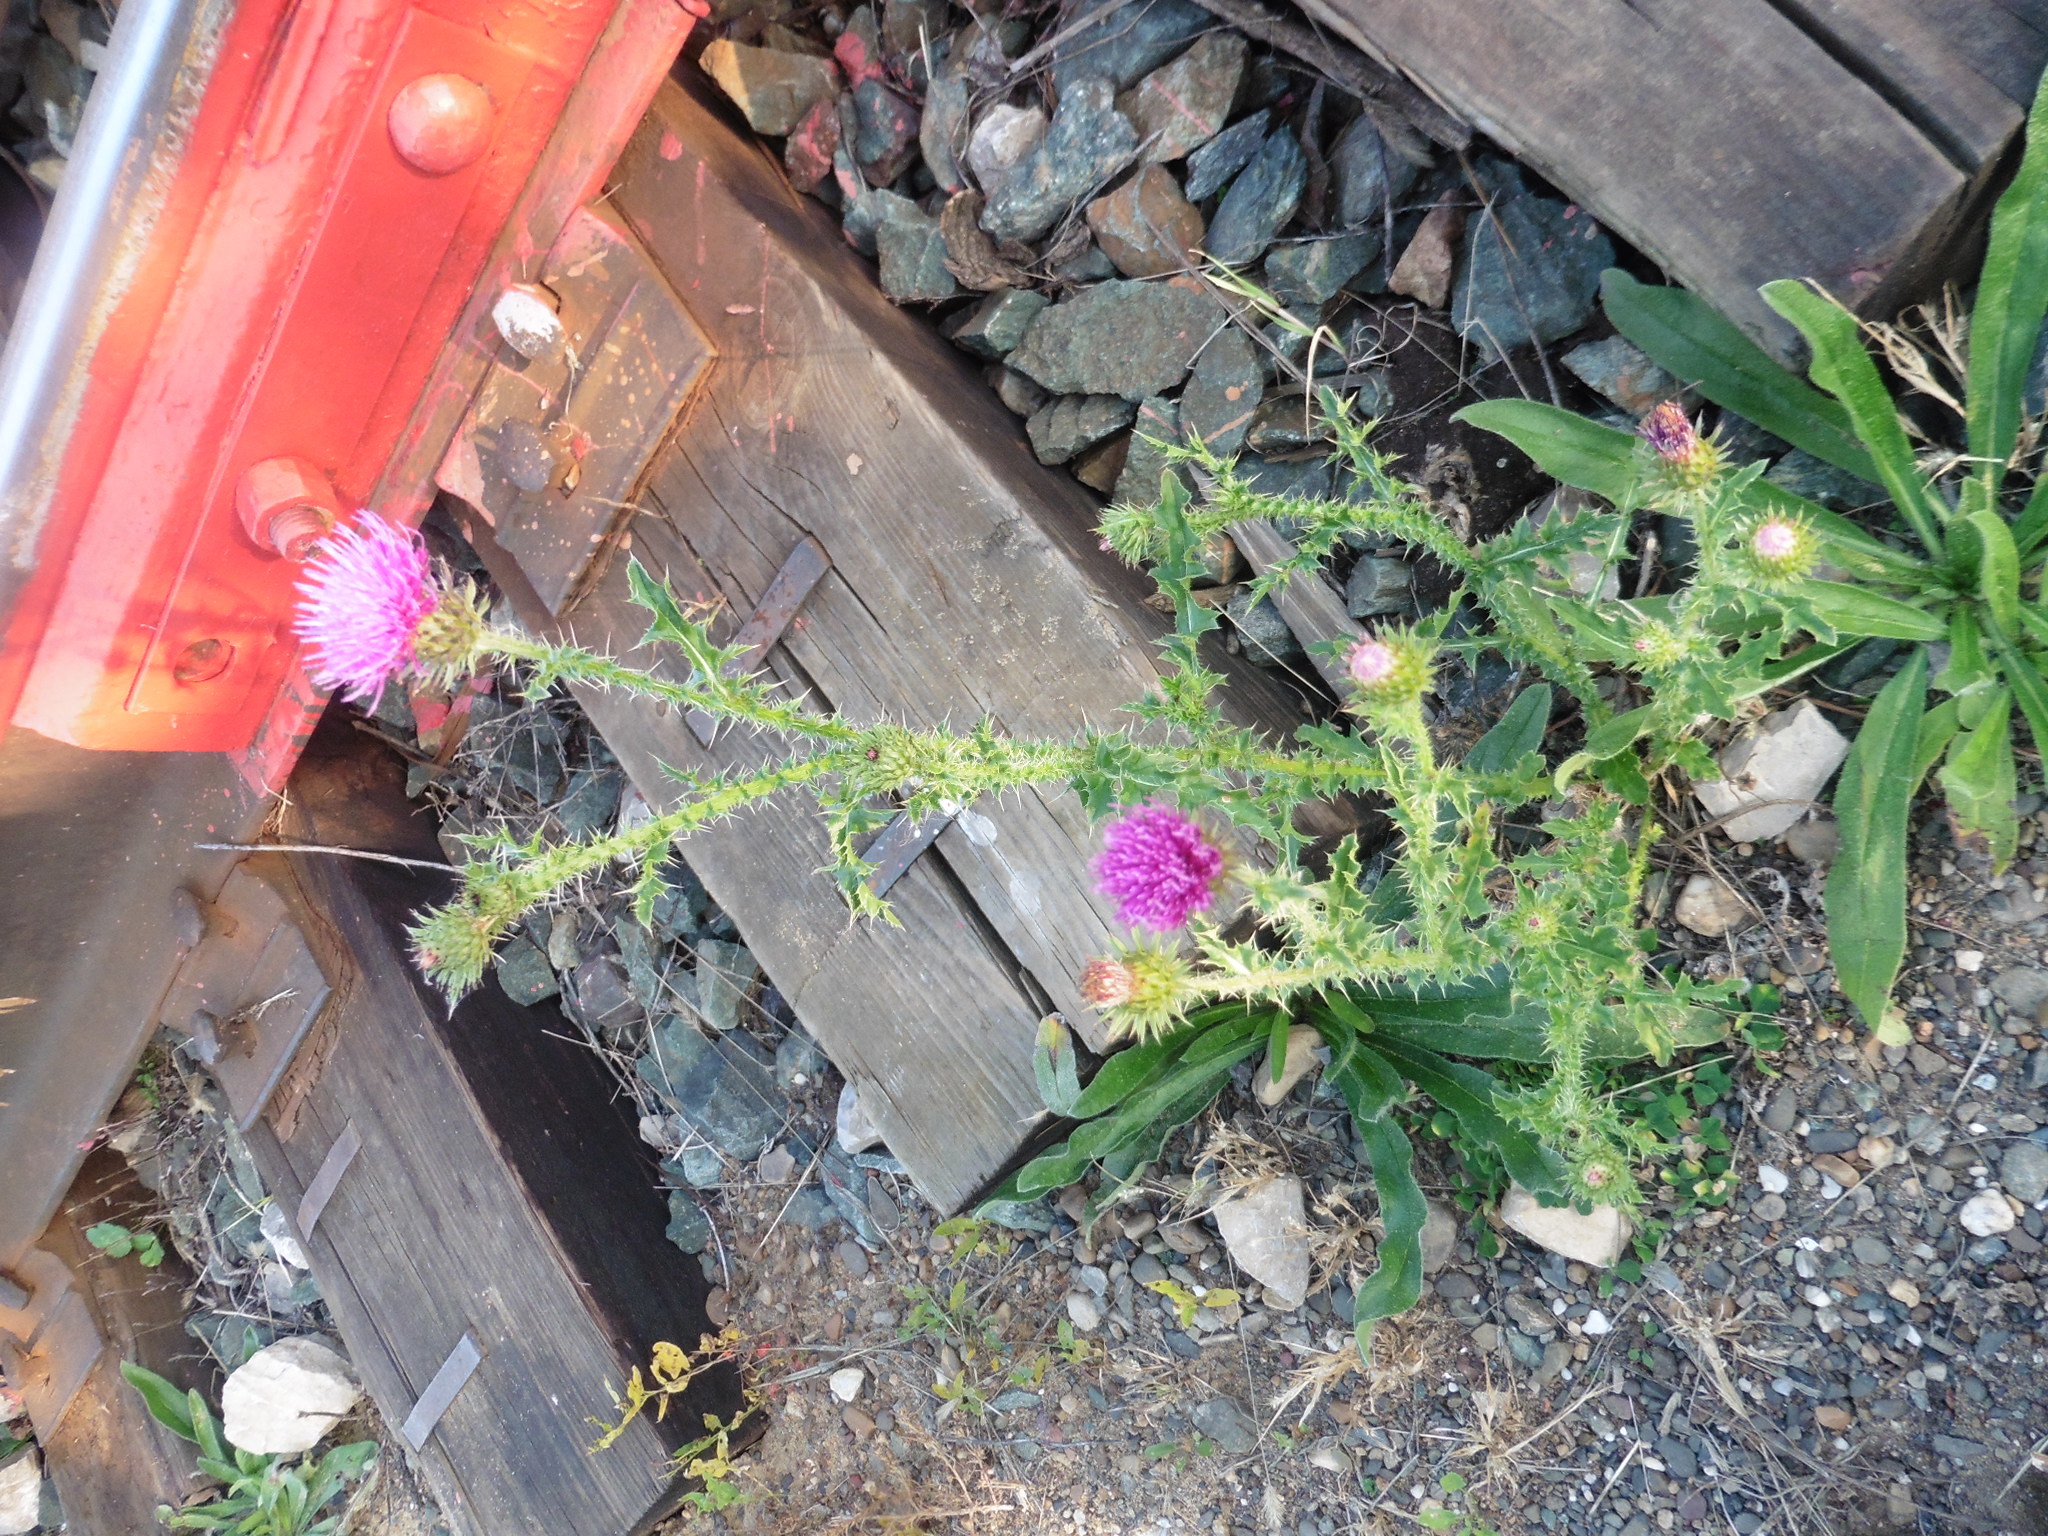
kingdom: Plantae
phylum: Tracheophyta
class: Magnoliopsida
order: Asterales
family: Asteraceae
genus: Carduus
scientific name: Carduus acanthoides
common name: Plumeless thistle
